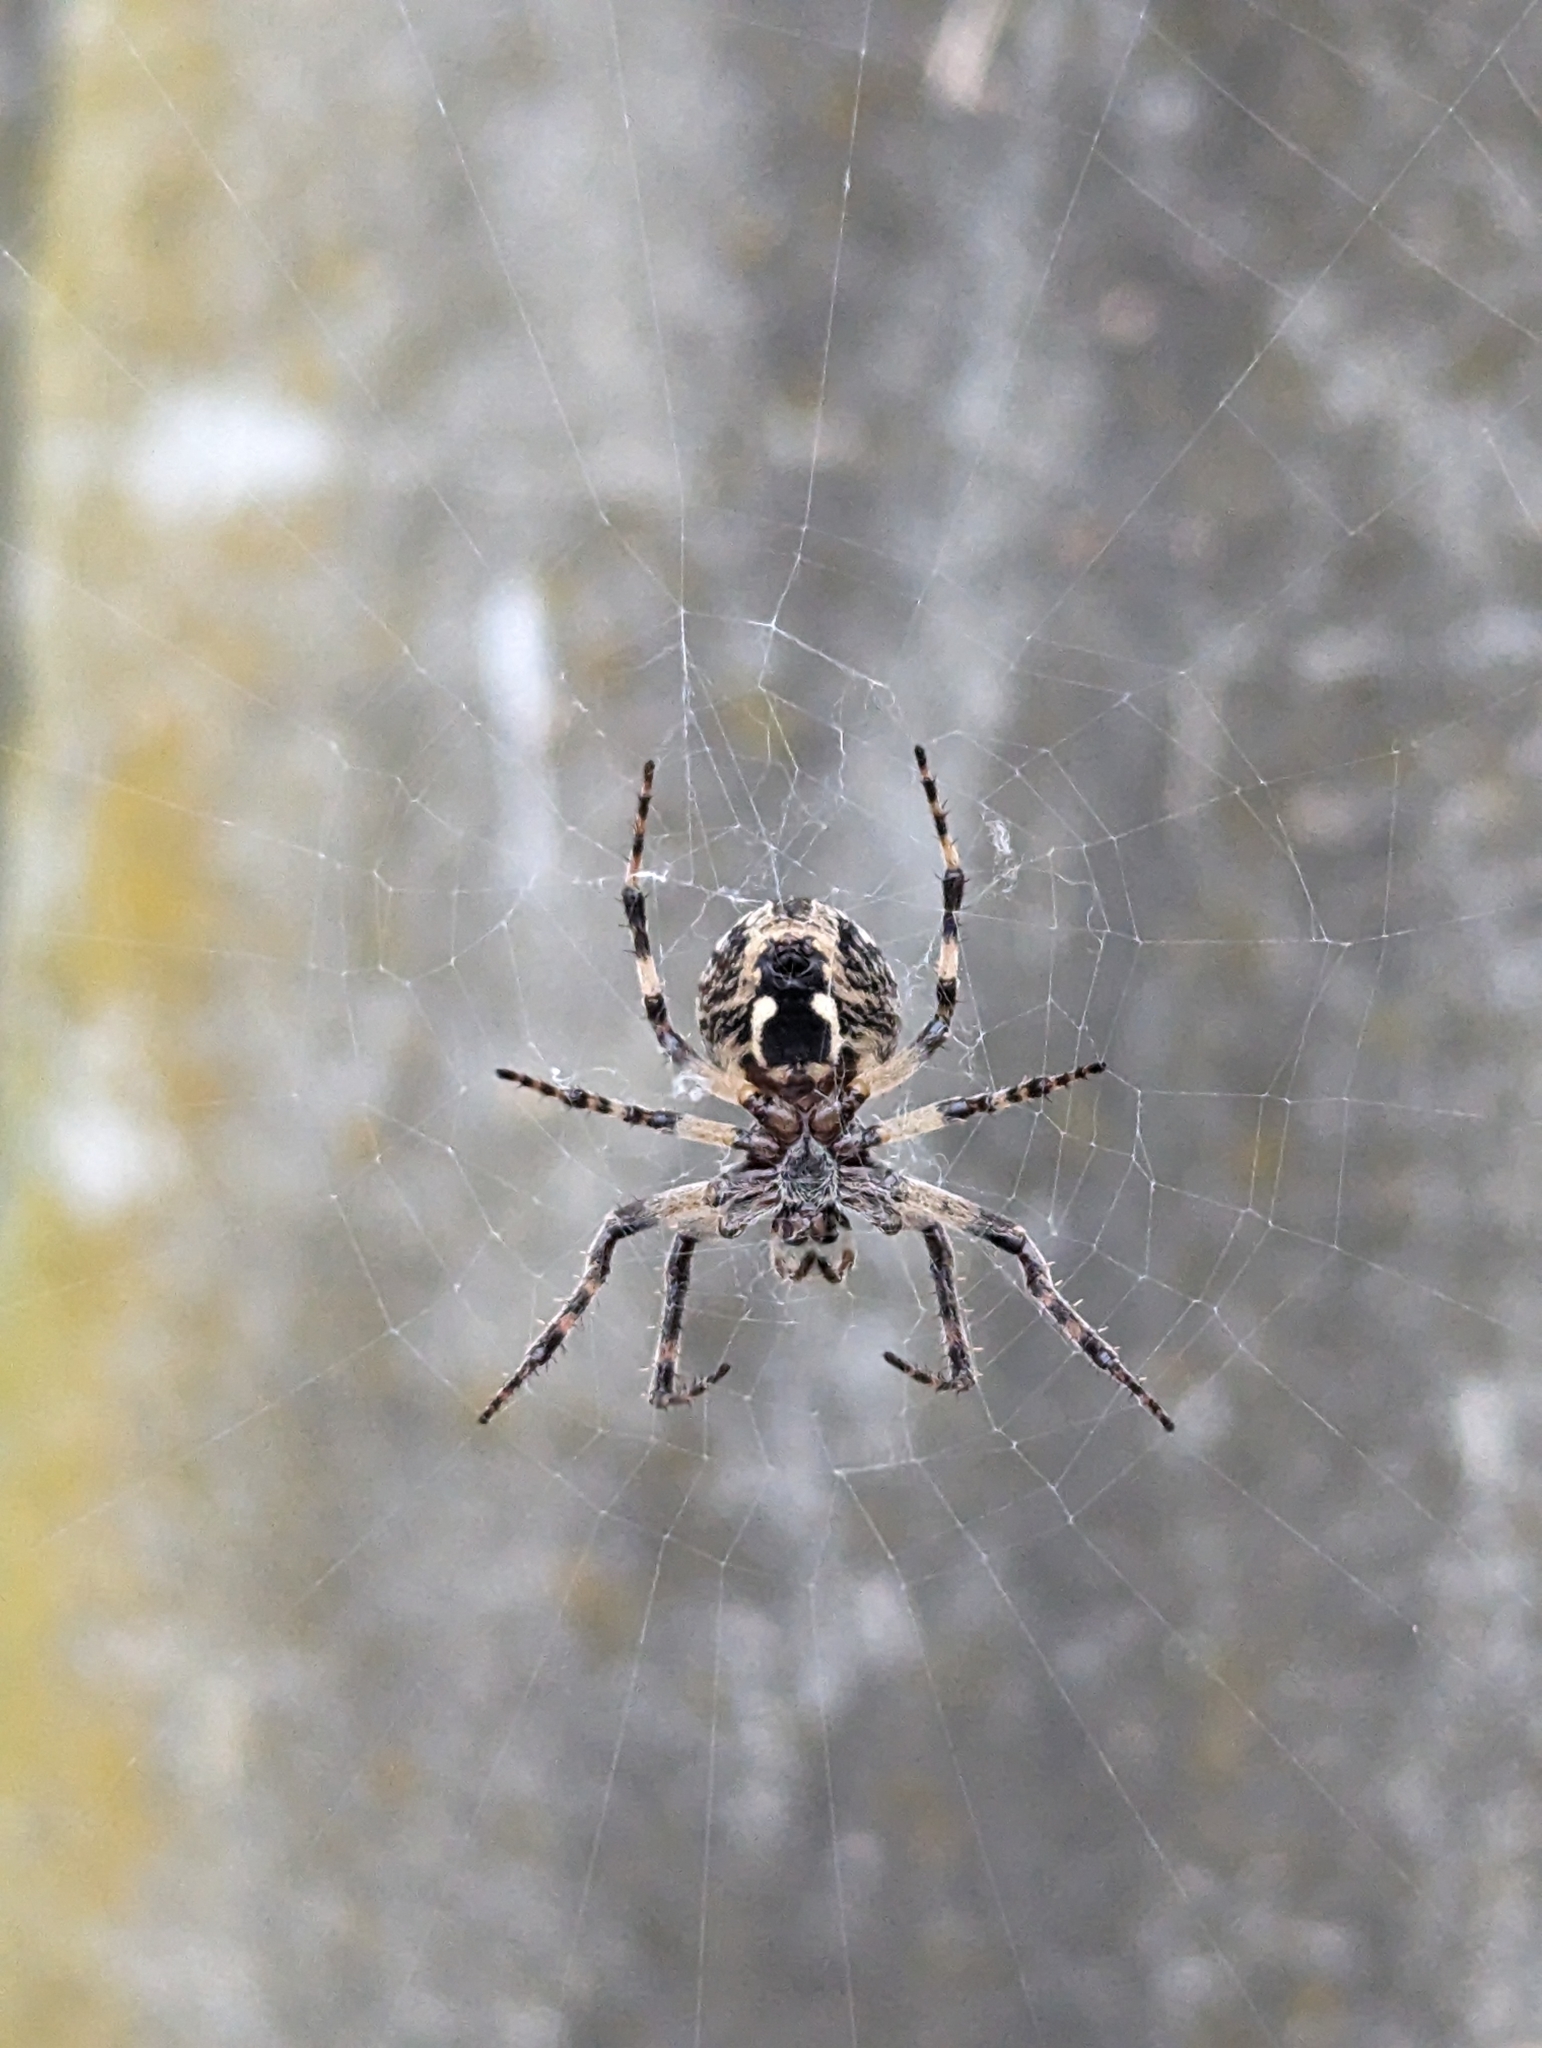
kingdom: Animalia
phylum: Arthropoda
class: Arachnida
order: Araneae
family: Araneidae
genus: Larinioides
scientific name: Larinioides sclopetarius
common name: Bridge orbweaver
